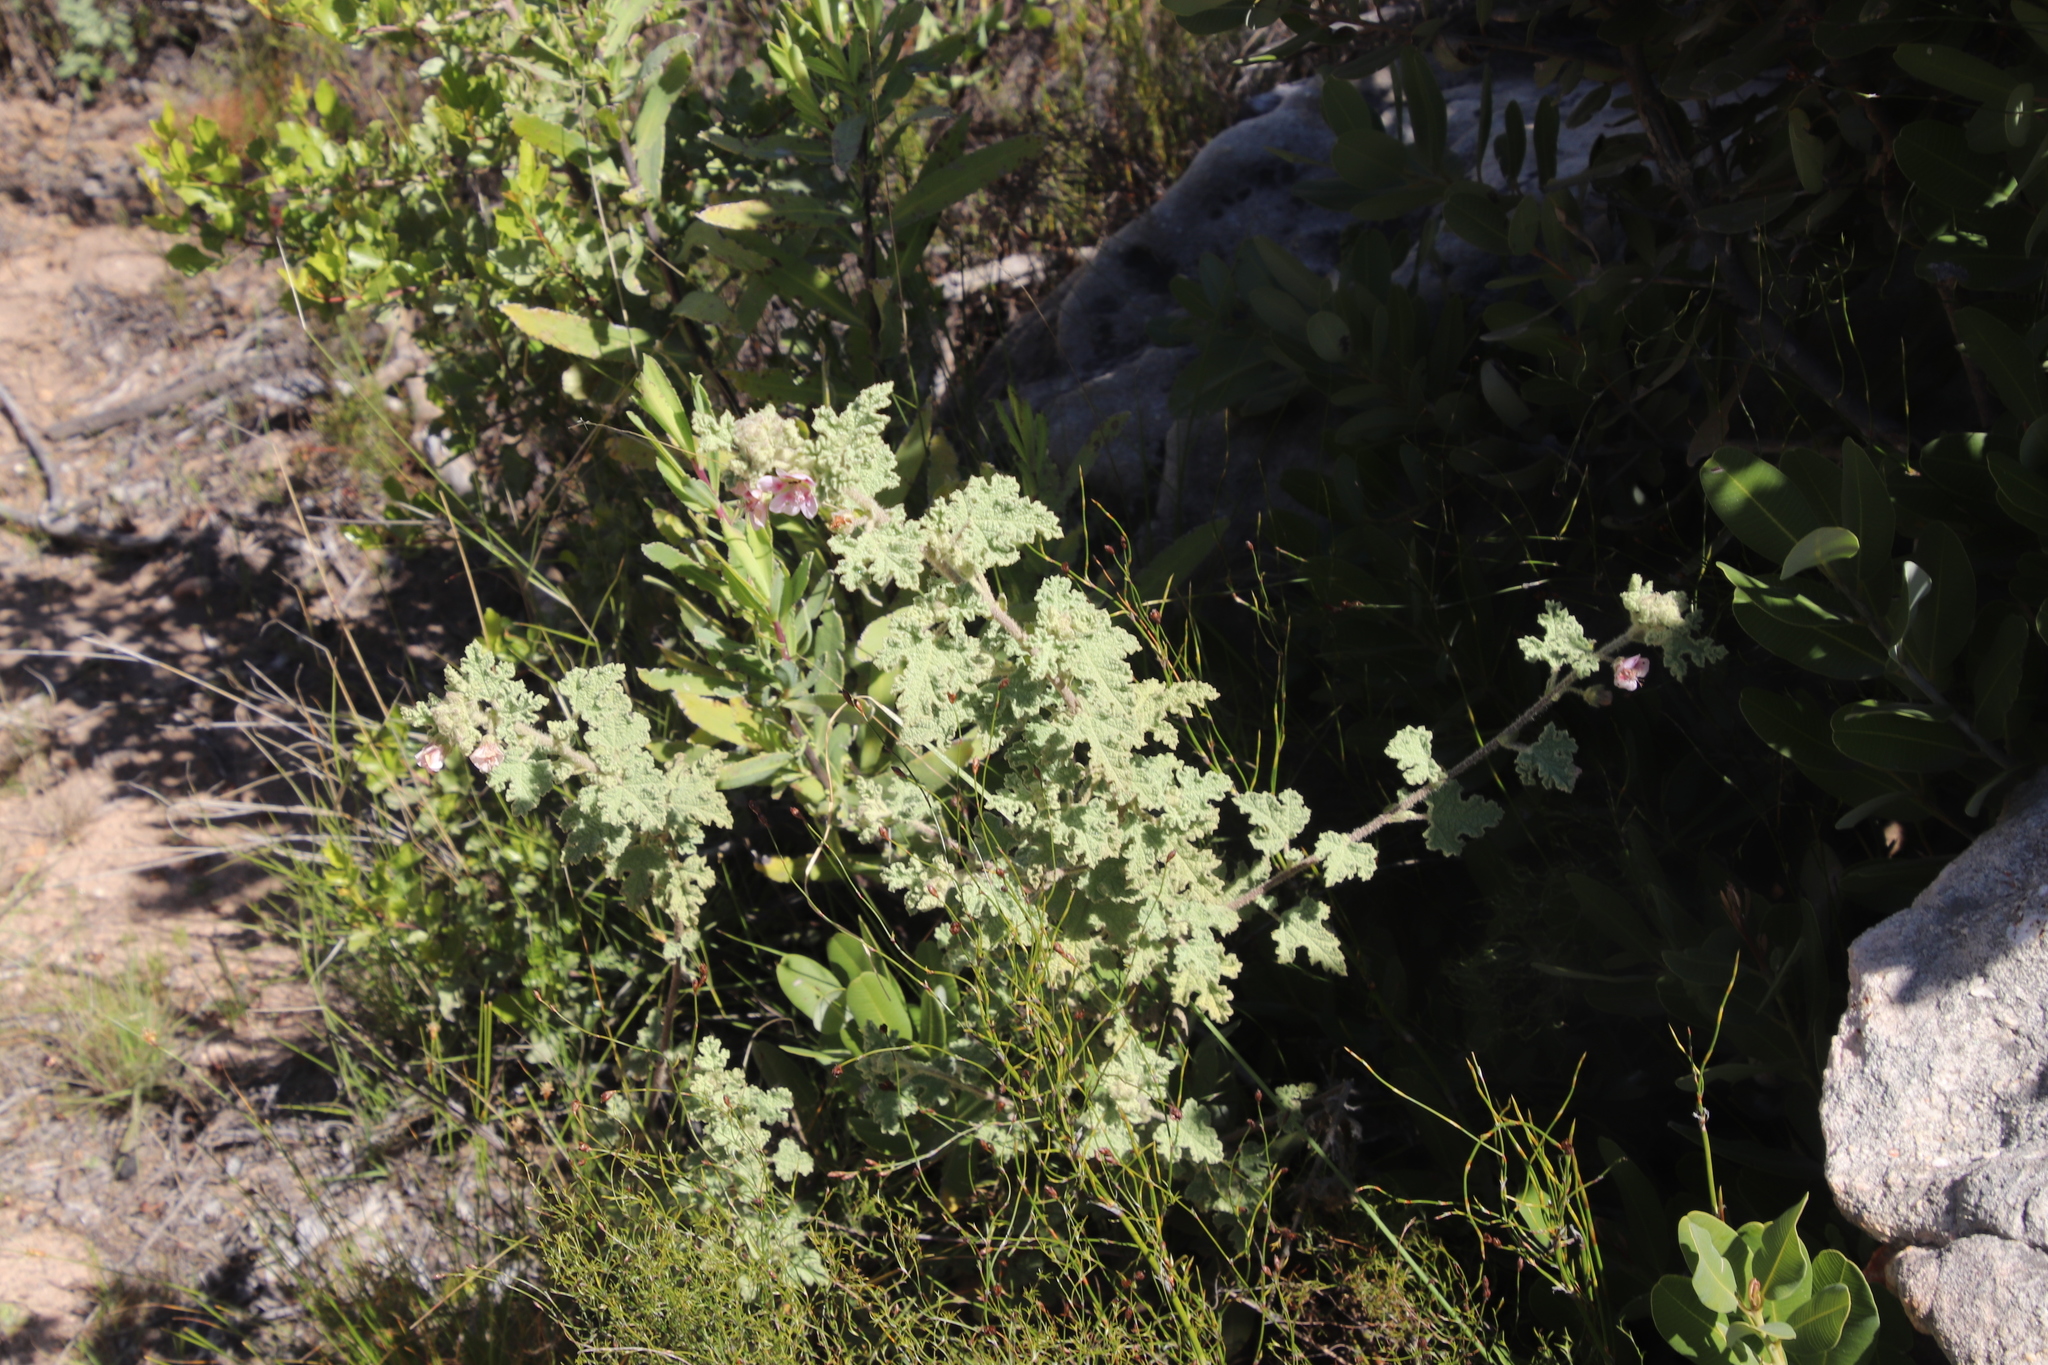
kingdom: Plantae
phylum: Tracheophyta
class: Magnoliopsida
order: Malvales
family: Malvaceae
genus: Anisodontea
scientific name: Anisodontea scabrosa
